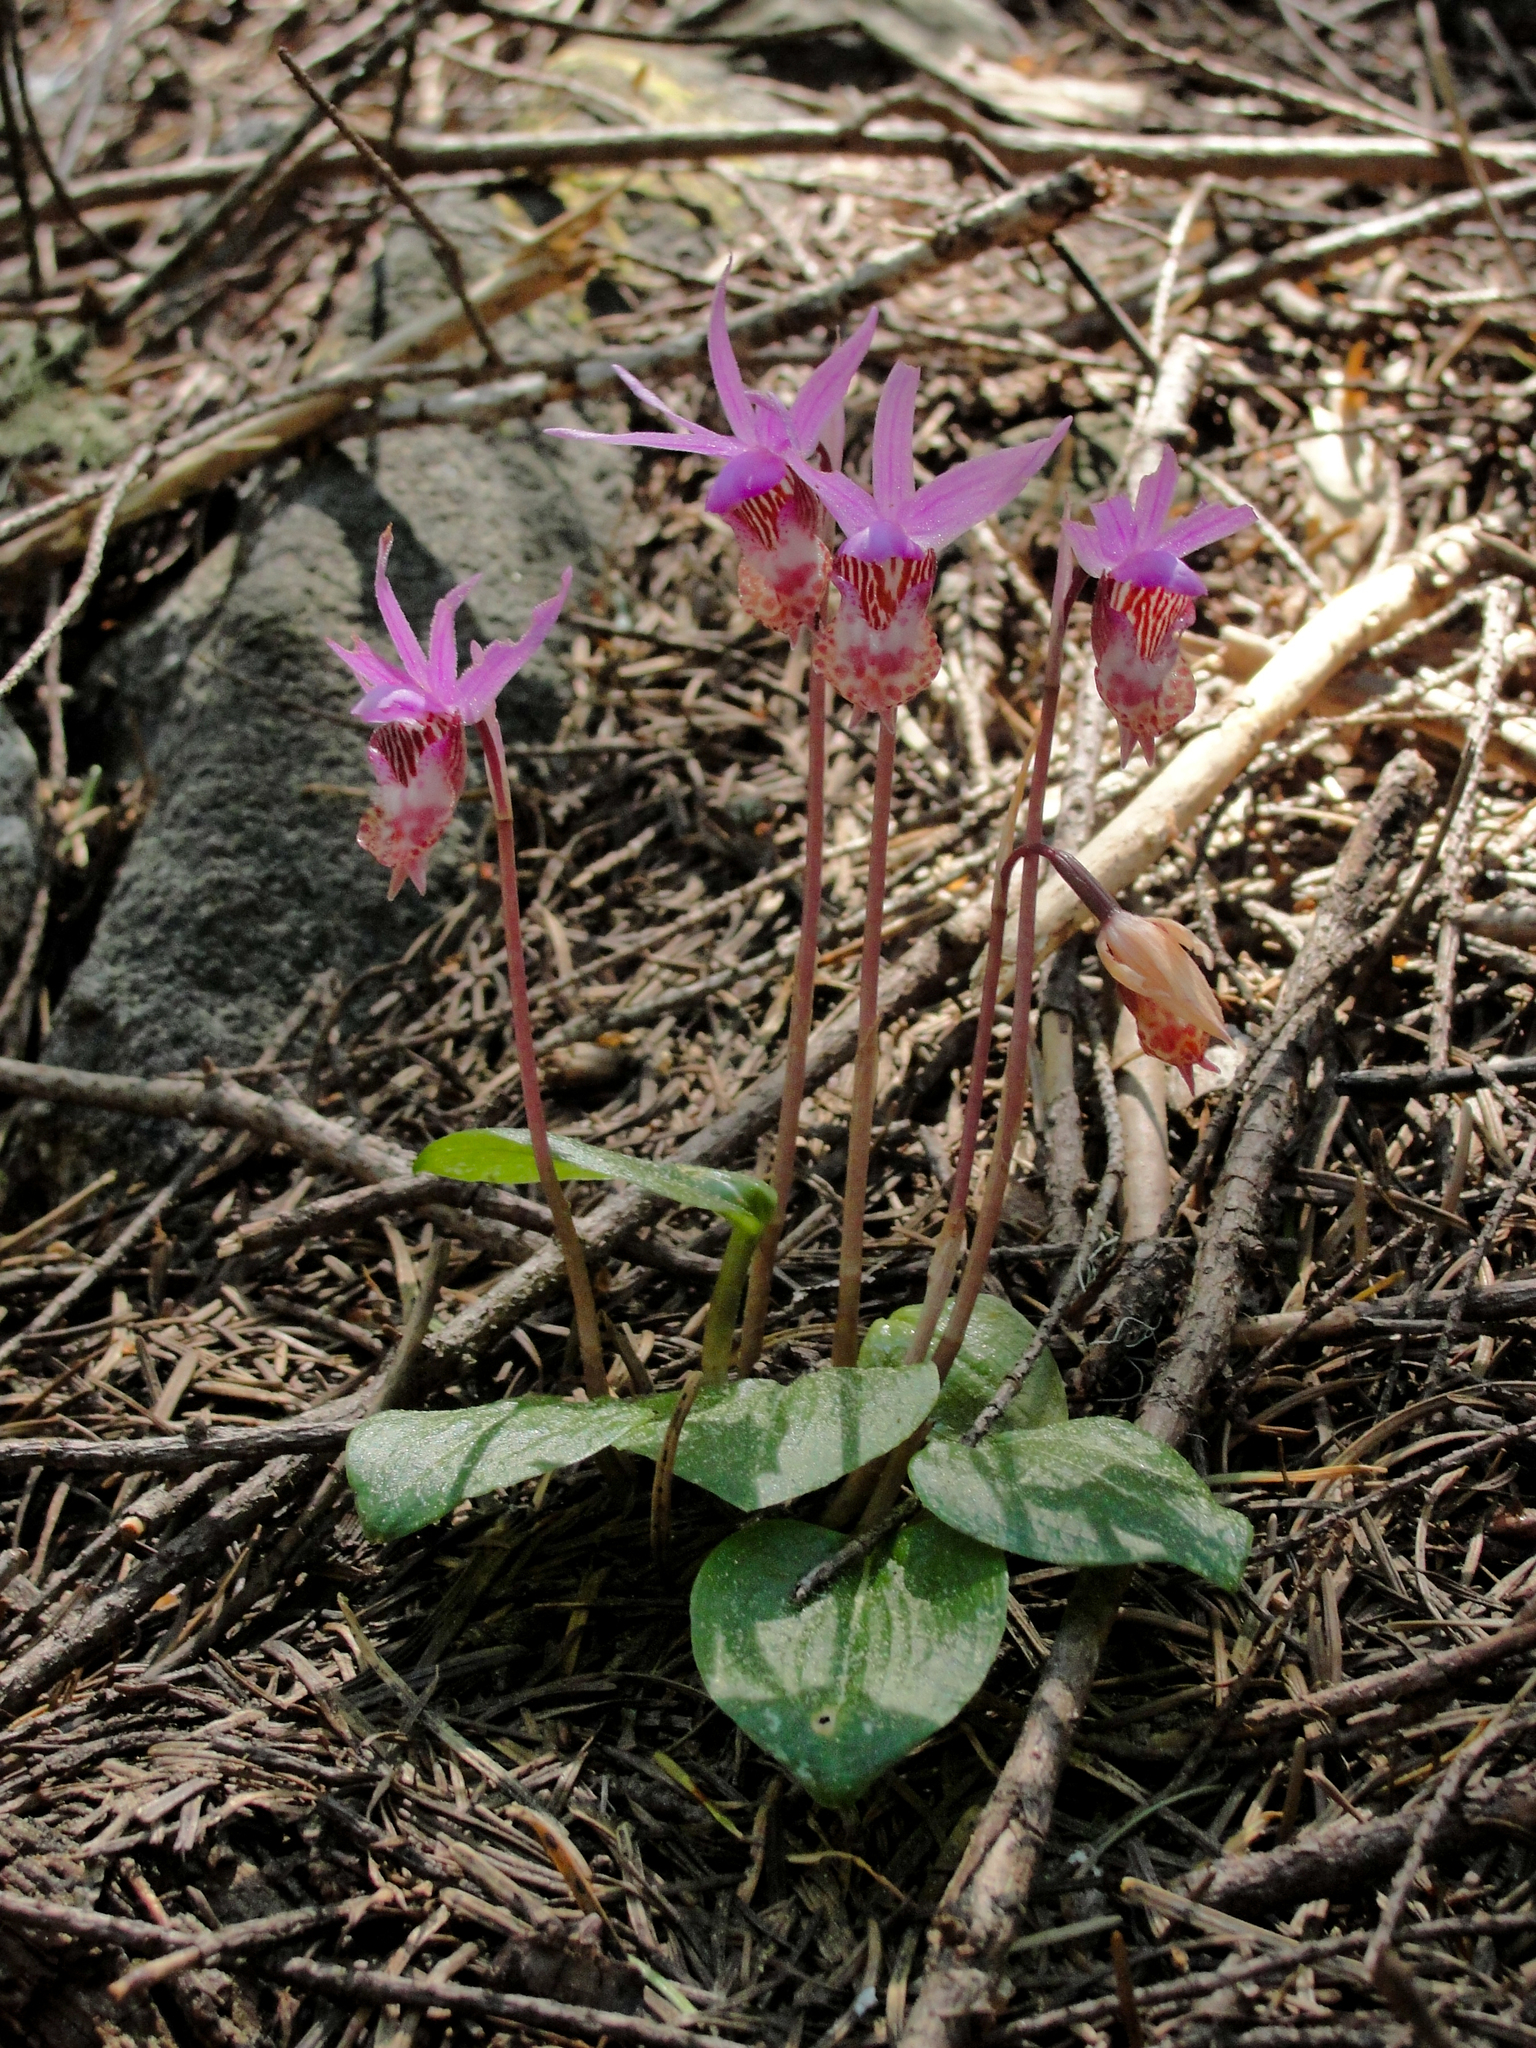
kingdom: Plantae
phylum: Tracheophyta
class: Liliopsida
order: Asparagales
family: Orchidaceae
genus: Calypso
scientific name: Calypso bulbosa
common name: Calypso
